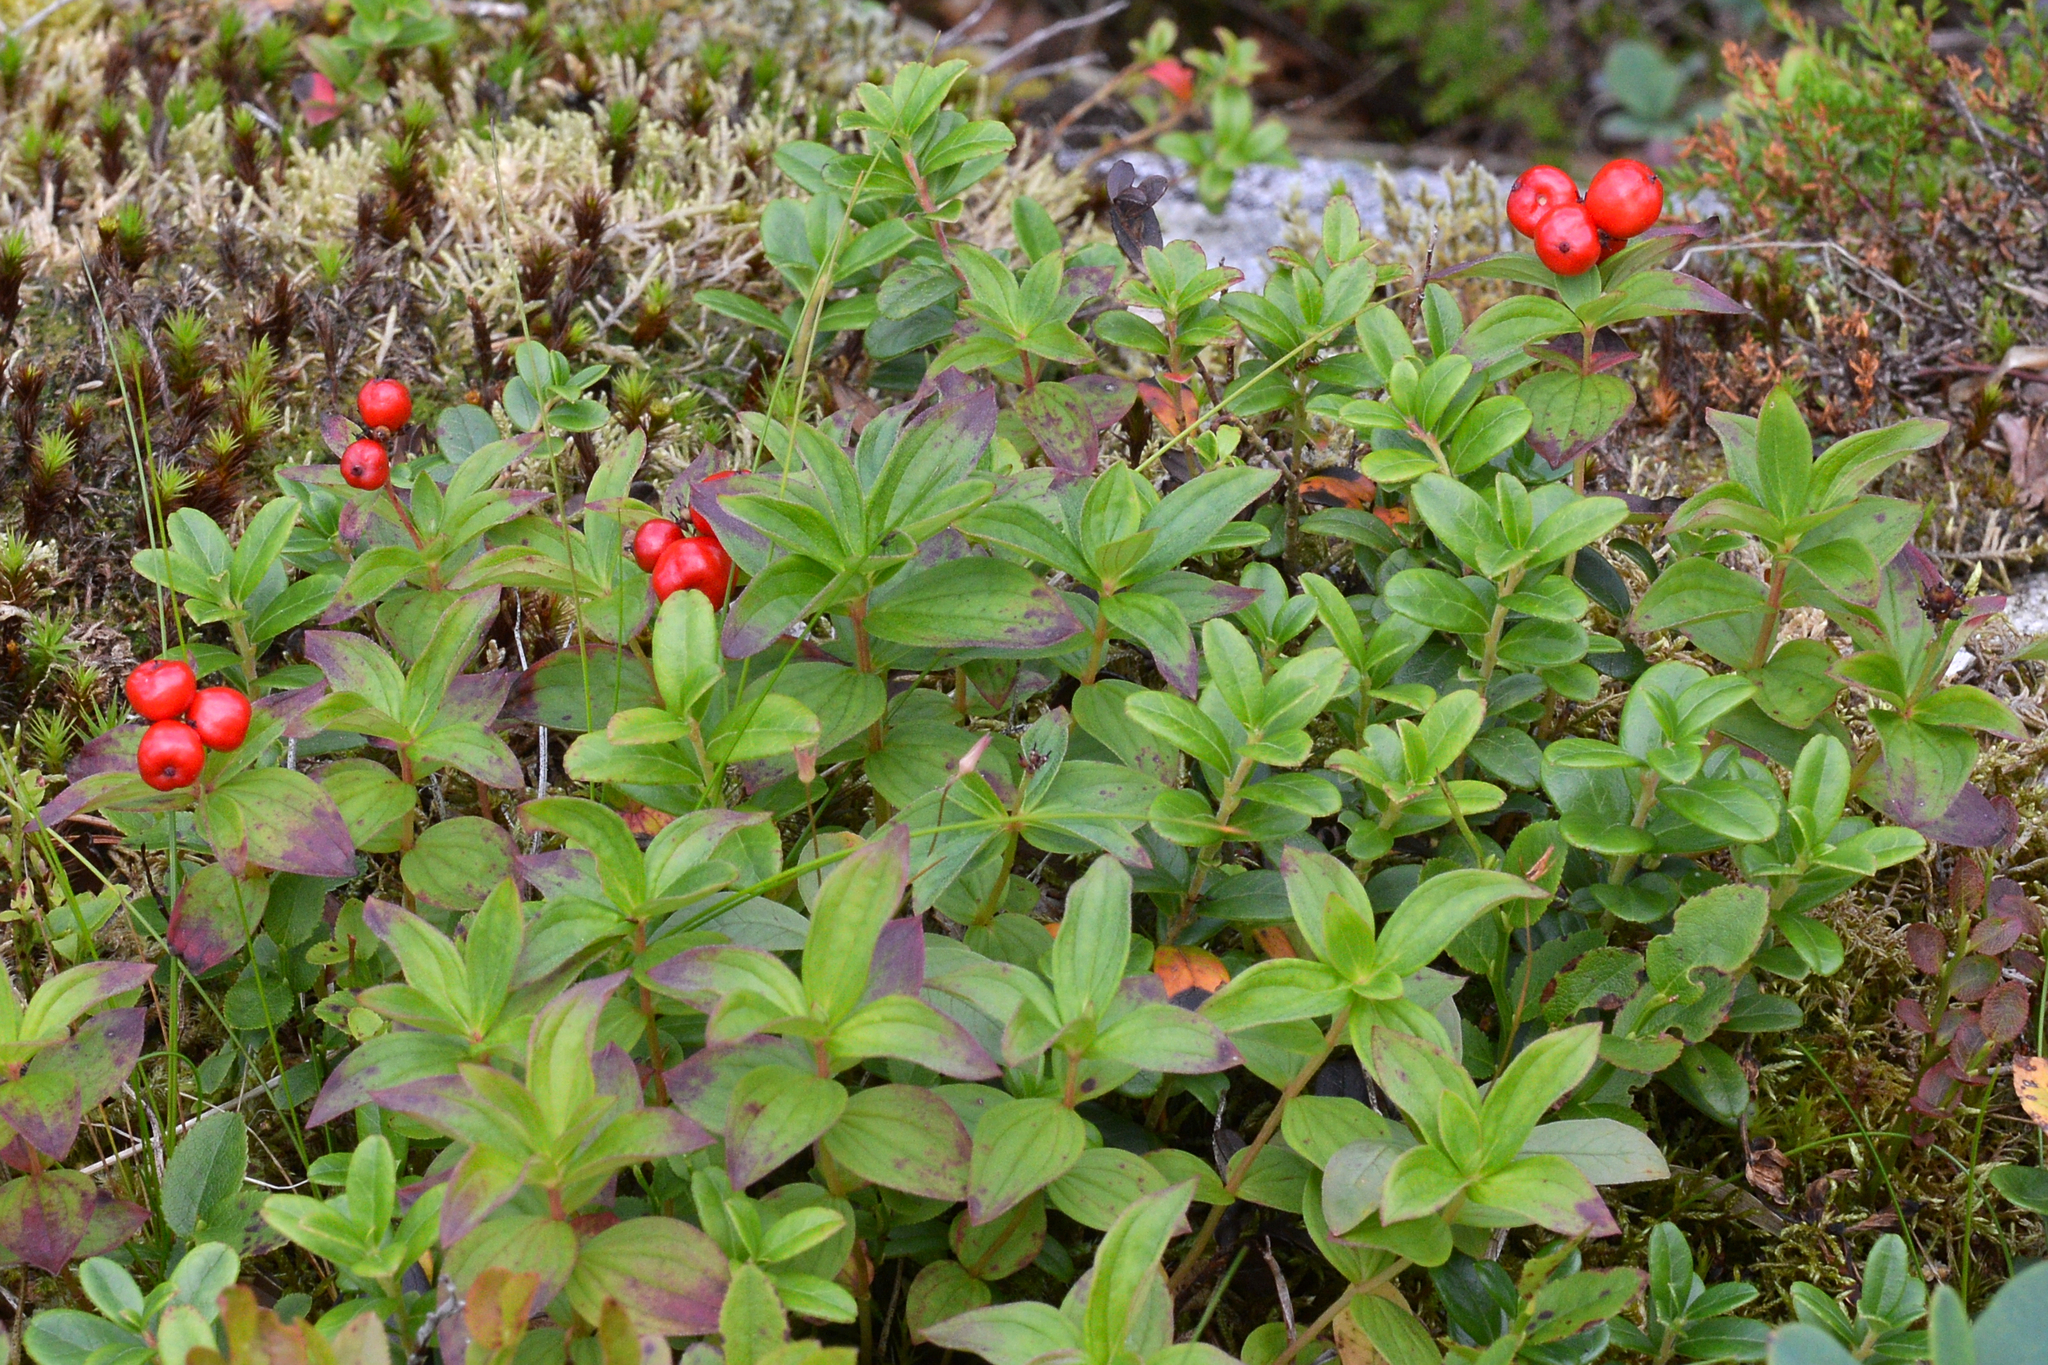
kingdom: Plantae
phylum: Tracheophyta
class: Magnoliopsida
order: Cornales
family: Cornaceae
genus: Cornus
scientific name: Cornus suecica
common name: Dwarf cornel
